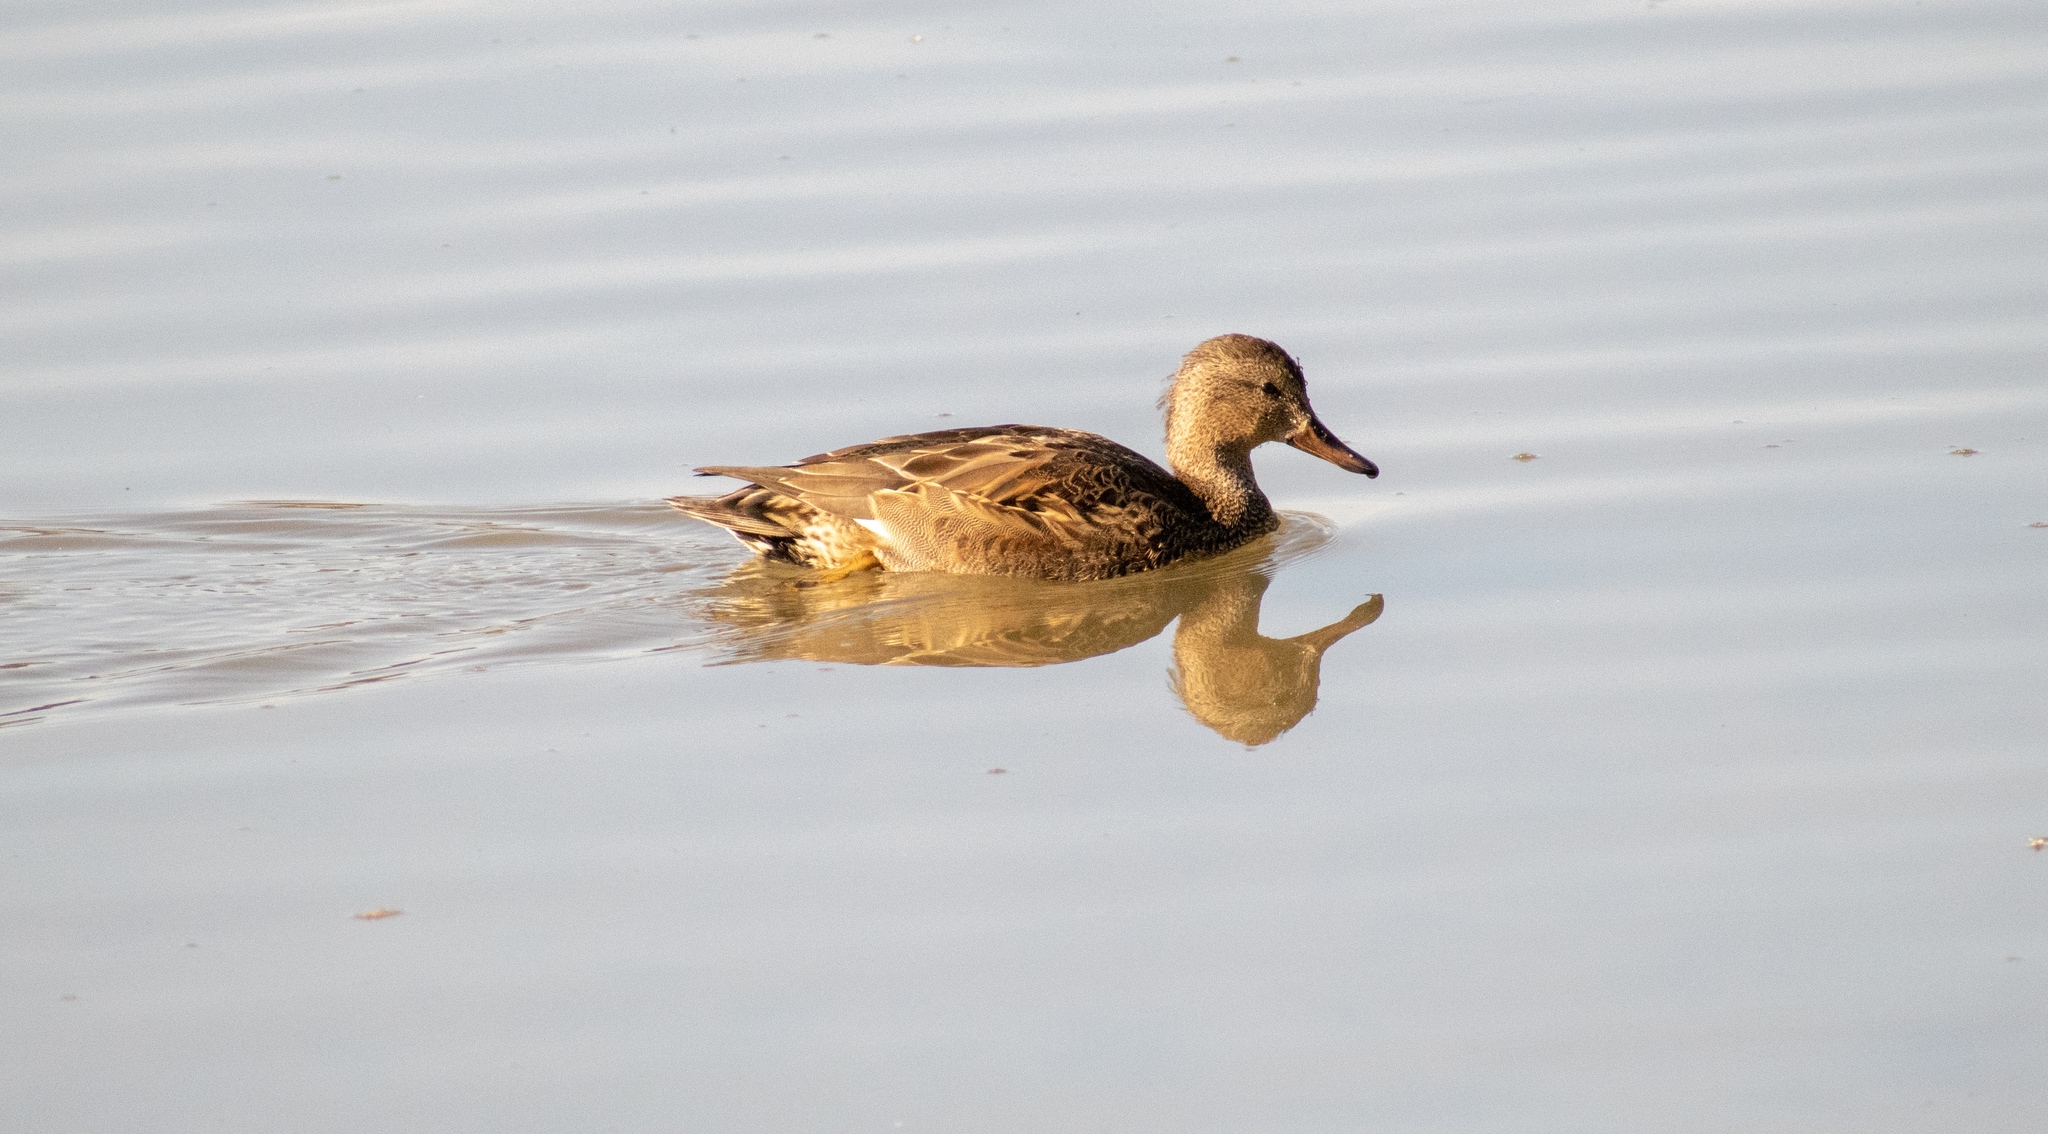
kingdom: Animalia
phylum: Chordata
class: Aves
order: Anseriformes
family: Anatidae
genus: Mareca
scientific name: Mareca strepera
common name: Gadwall
